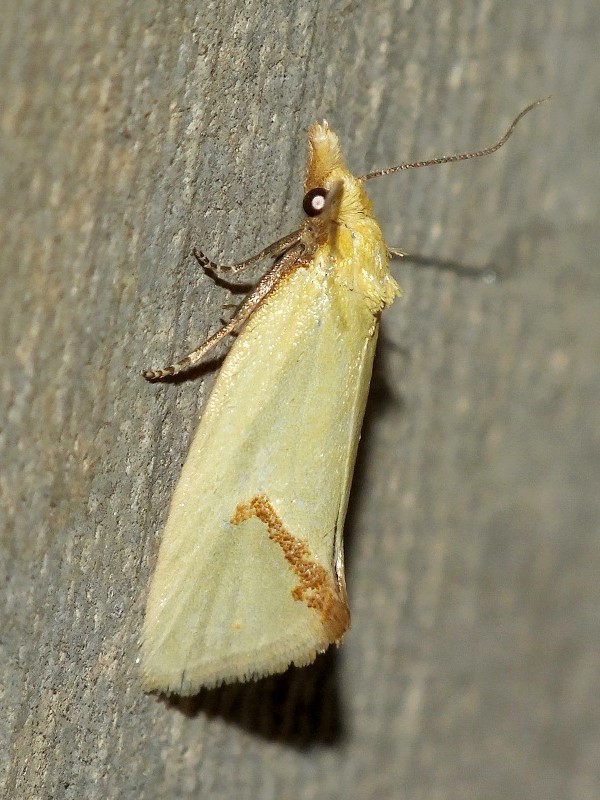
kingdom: Animalia
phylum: Arthropoda
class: Insecta
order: Lepidoptera
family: Tortricidae
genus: Agapeta
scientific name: Agapeta hamana
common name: Common yellow conch
